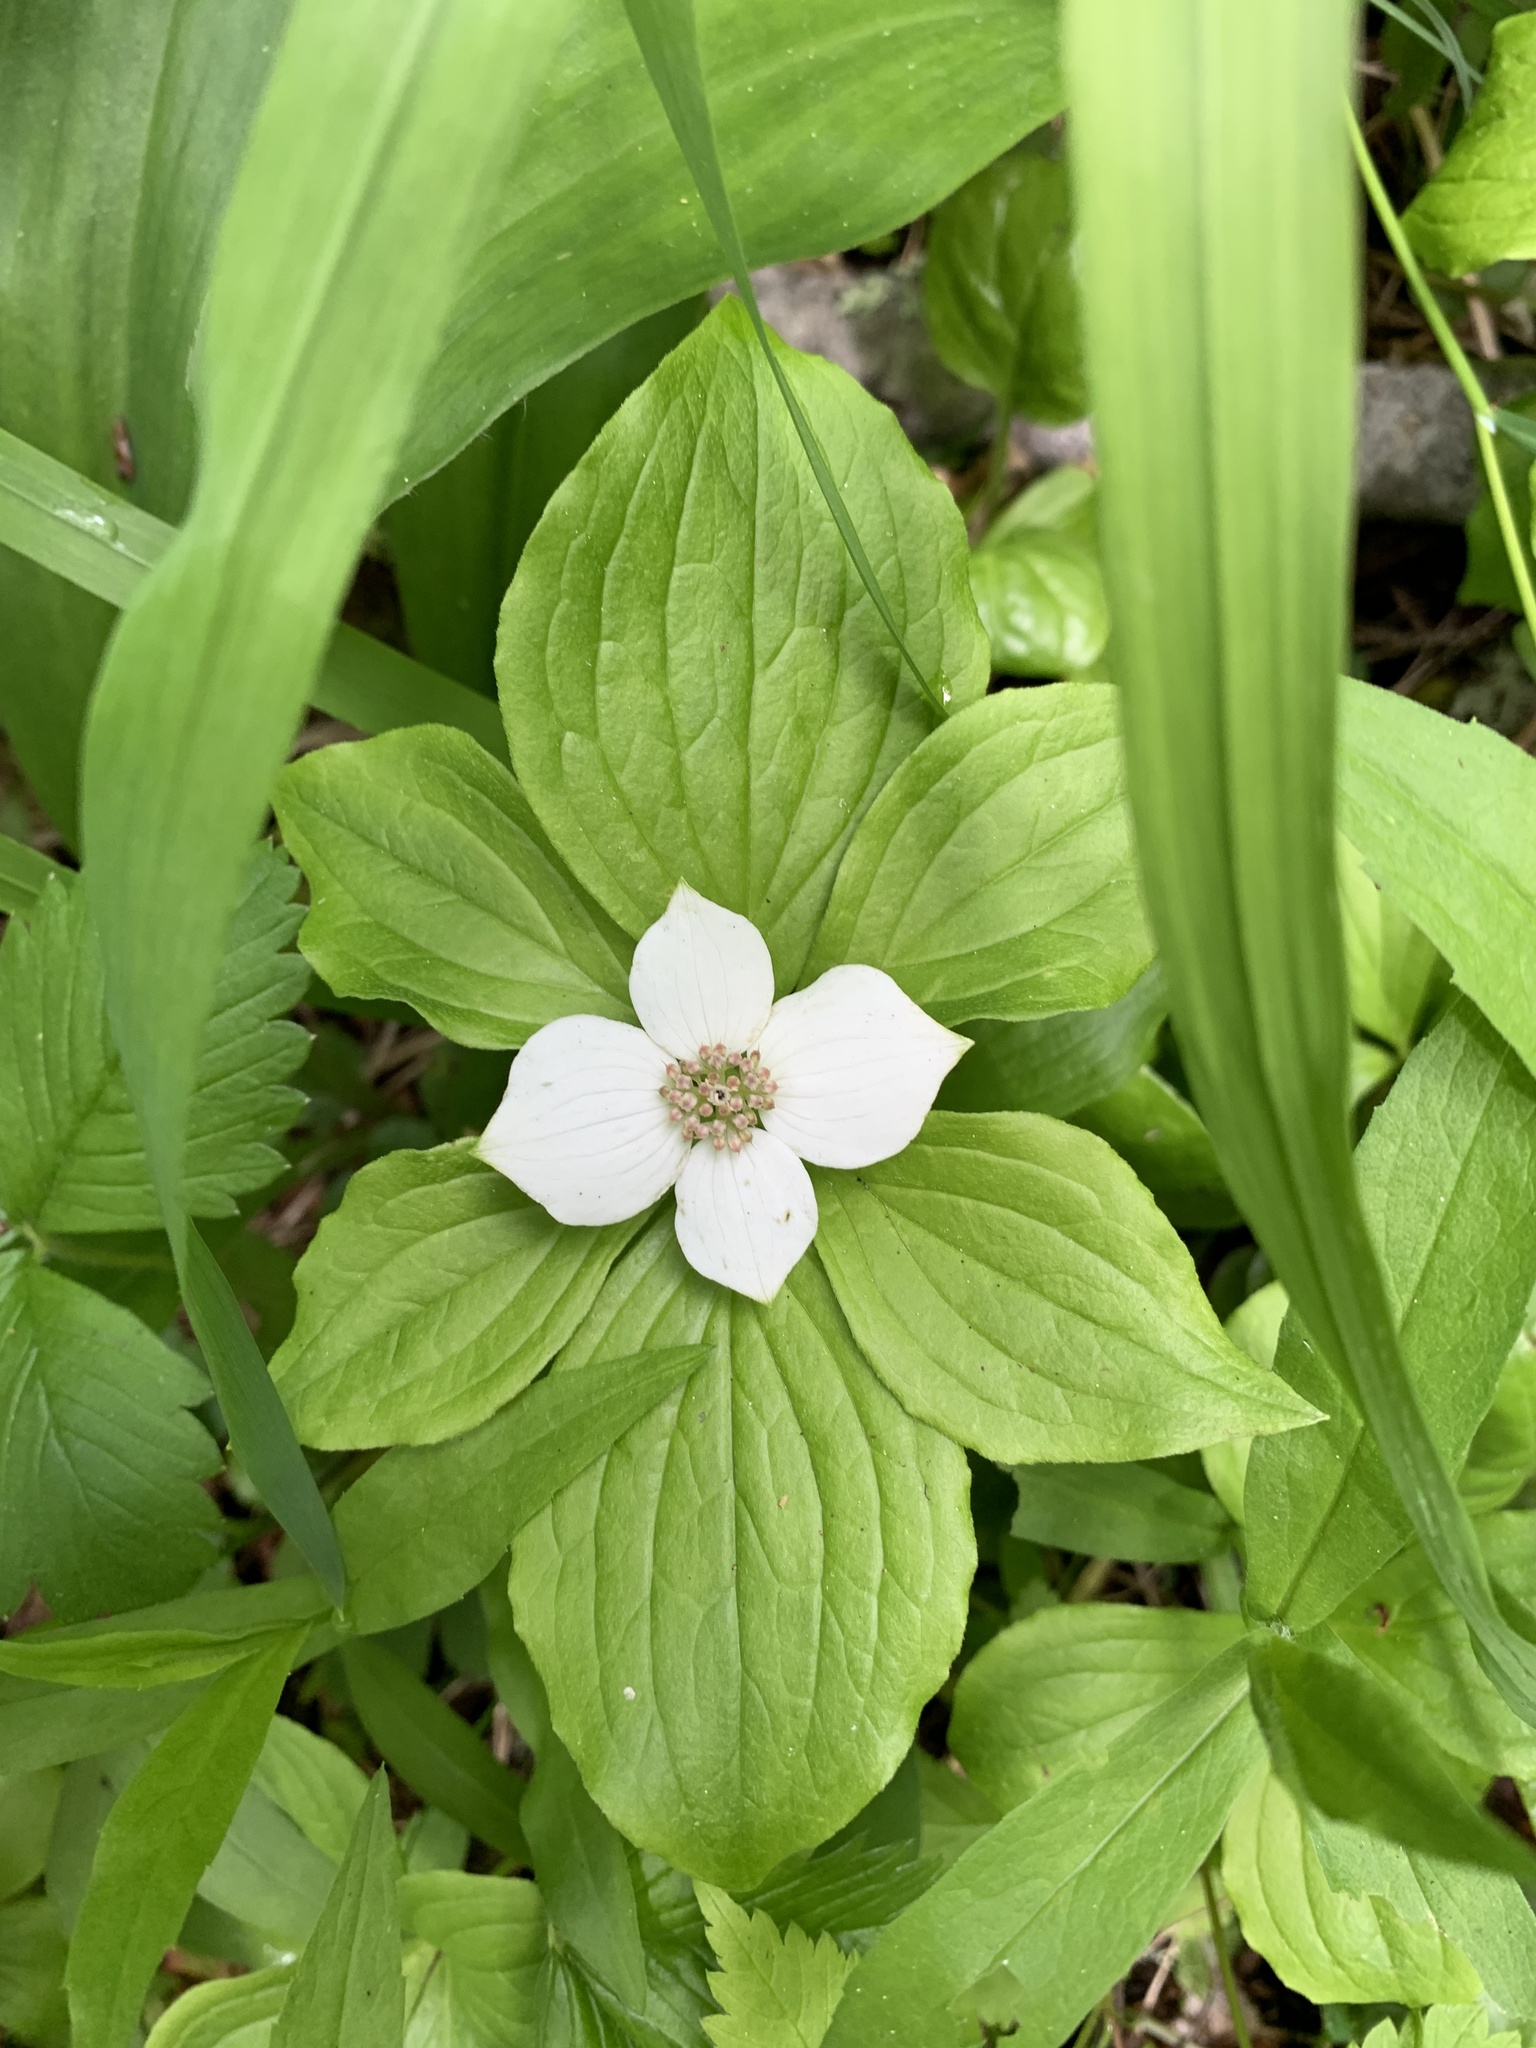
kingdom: Plantae
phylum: Tracheophyta
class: Magnoliopsida
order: Cornales
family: Cornaceae
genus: Cornus
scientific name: Cornus canadensis
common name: Creeping dogwood
